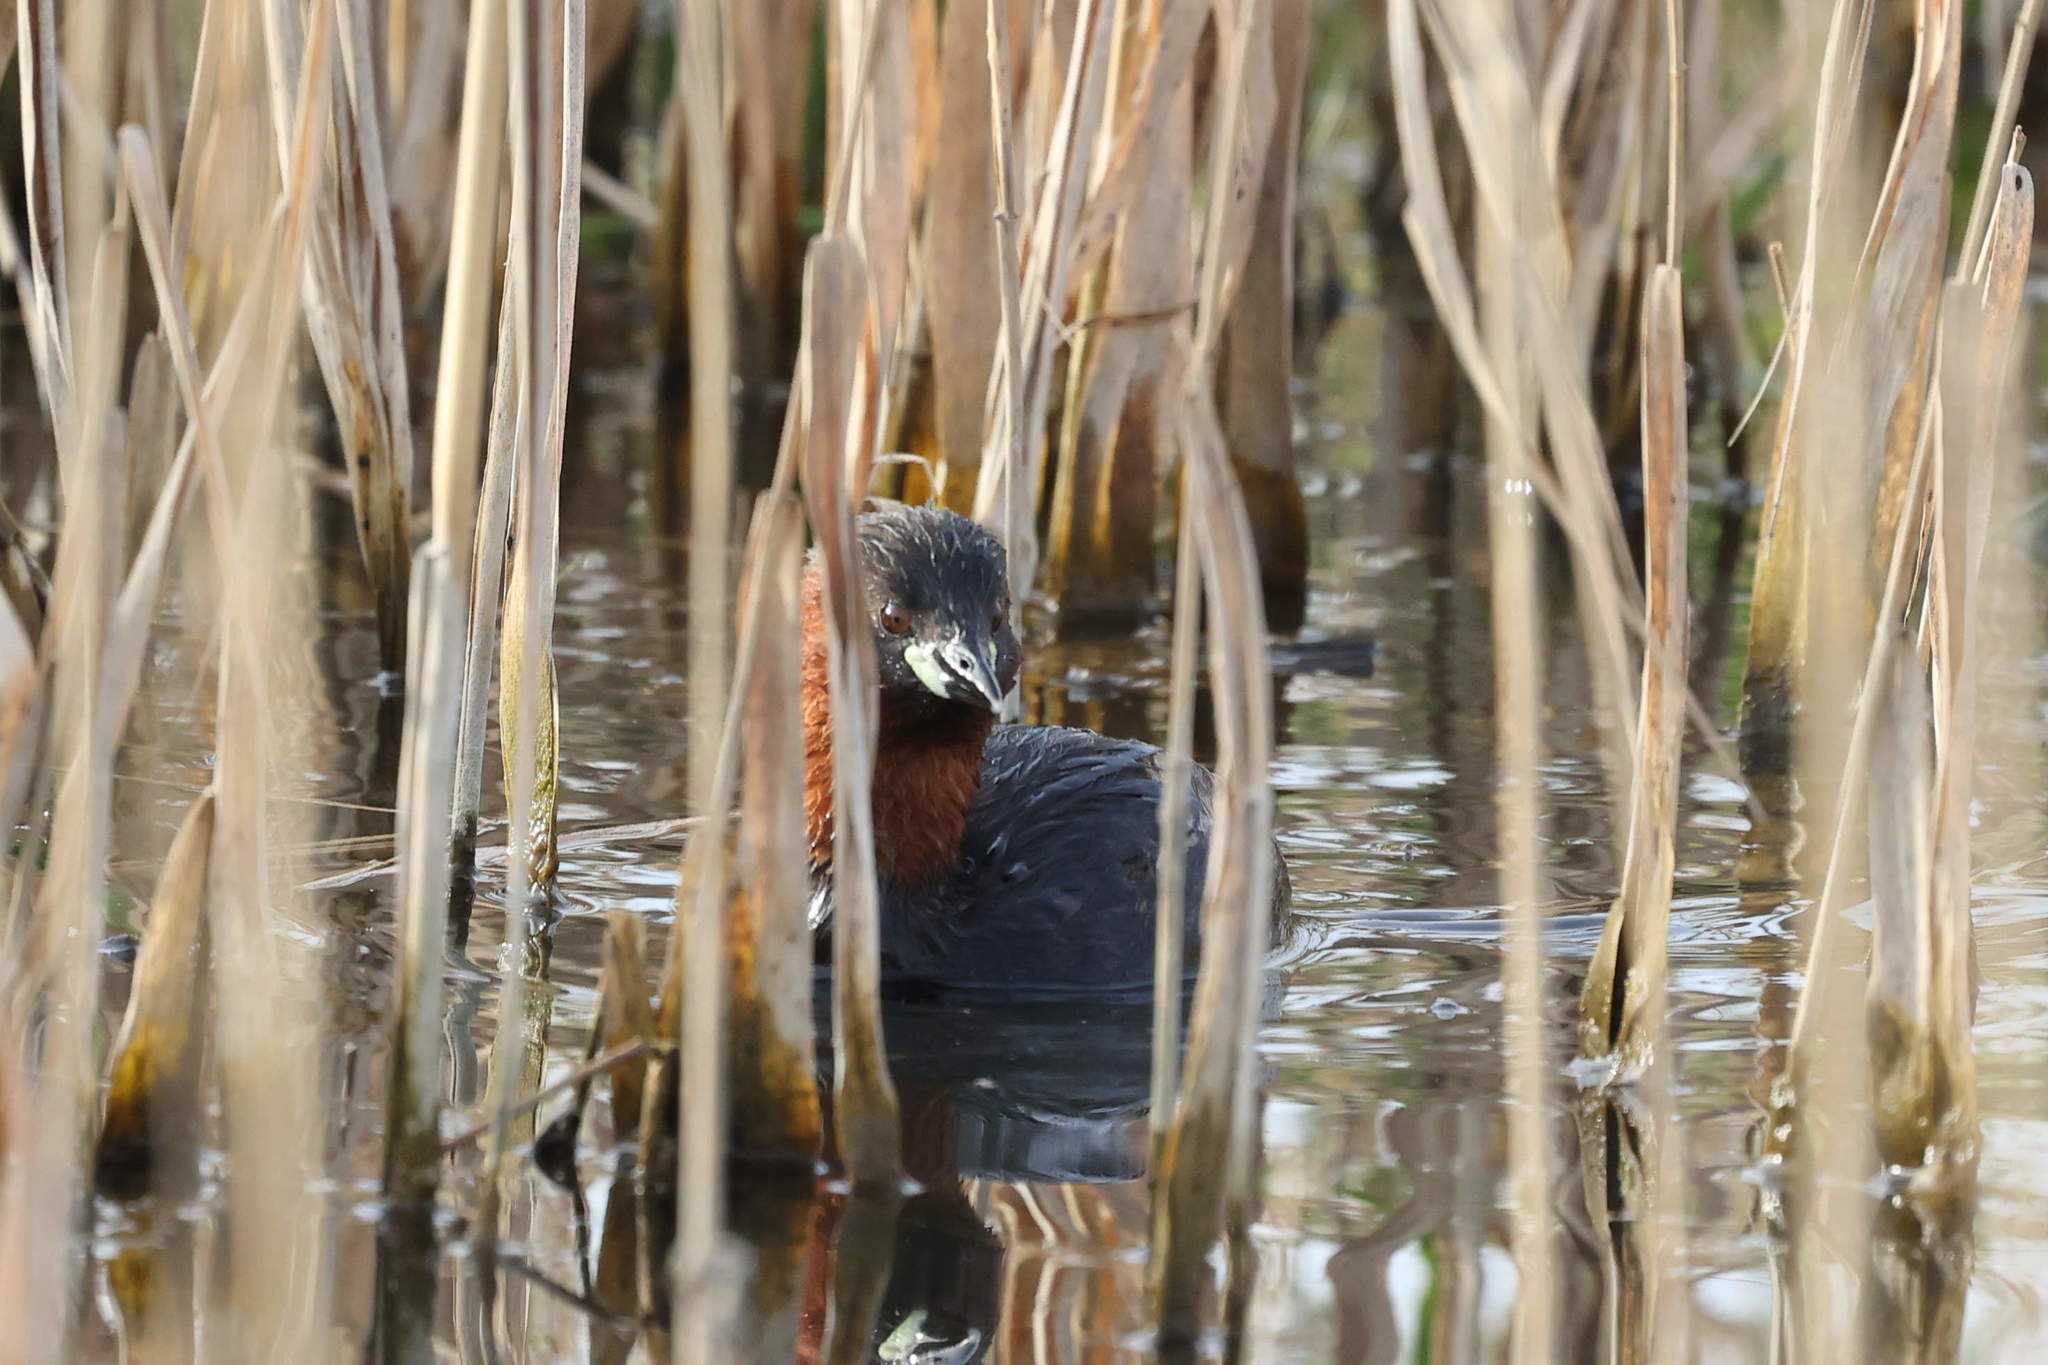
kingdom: Animalia
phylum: Chordata
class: Aves
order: Podicipediformes
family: Podicipedidae
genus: Tachybaptus
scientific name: Tachybaptus ruficollis
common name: Little grebe
